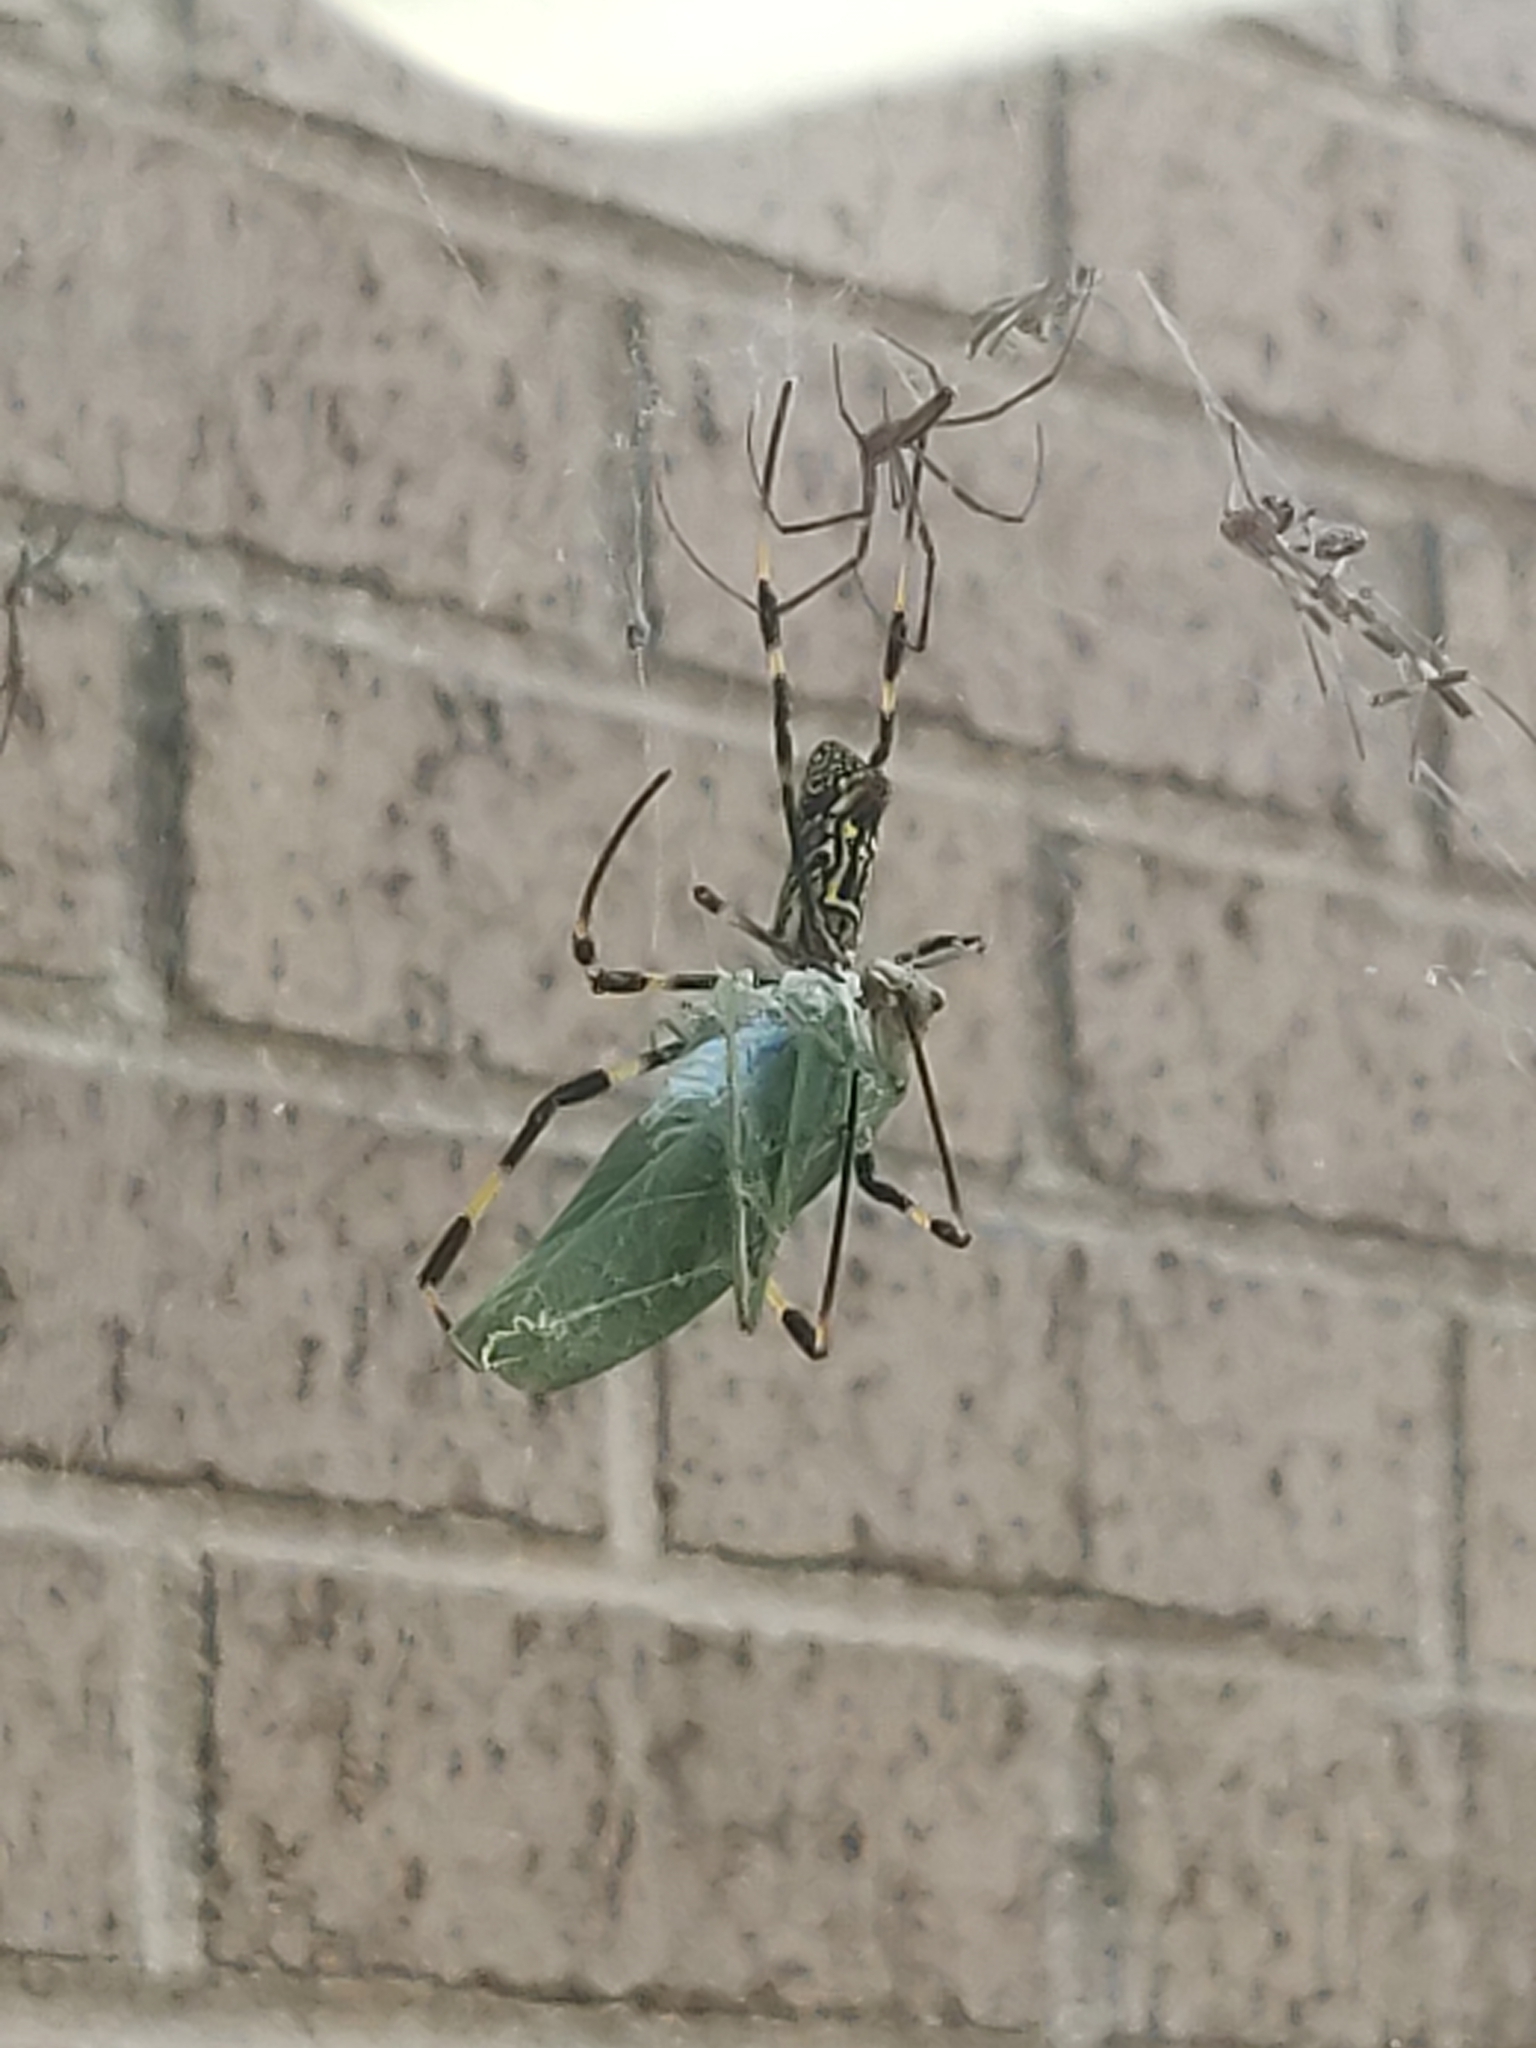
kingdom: Animalia
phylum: Arthropoda
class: Arachnida
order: Araneae
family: Araneidae
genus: Trichonephila
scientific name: Trichonephila clavata
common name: Jorō spider
